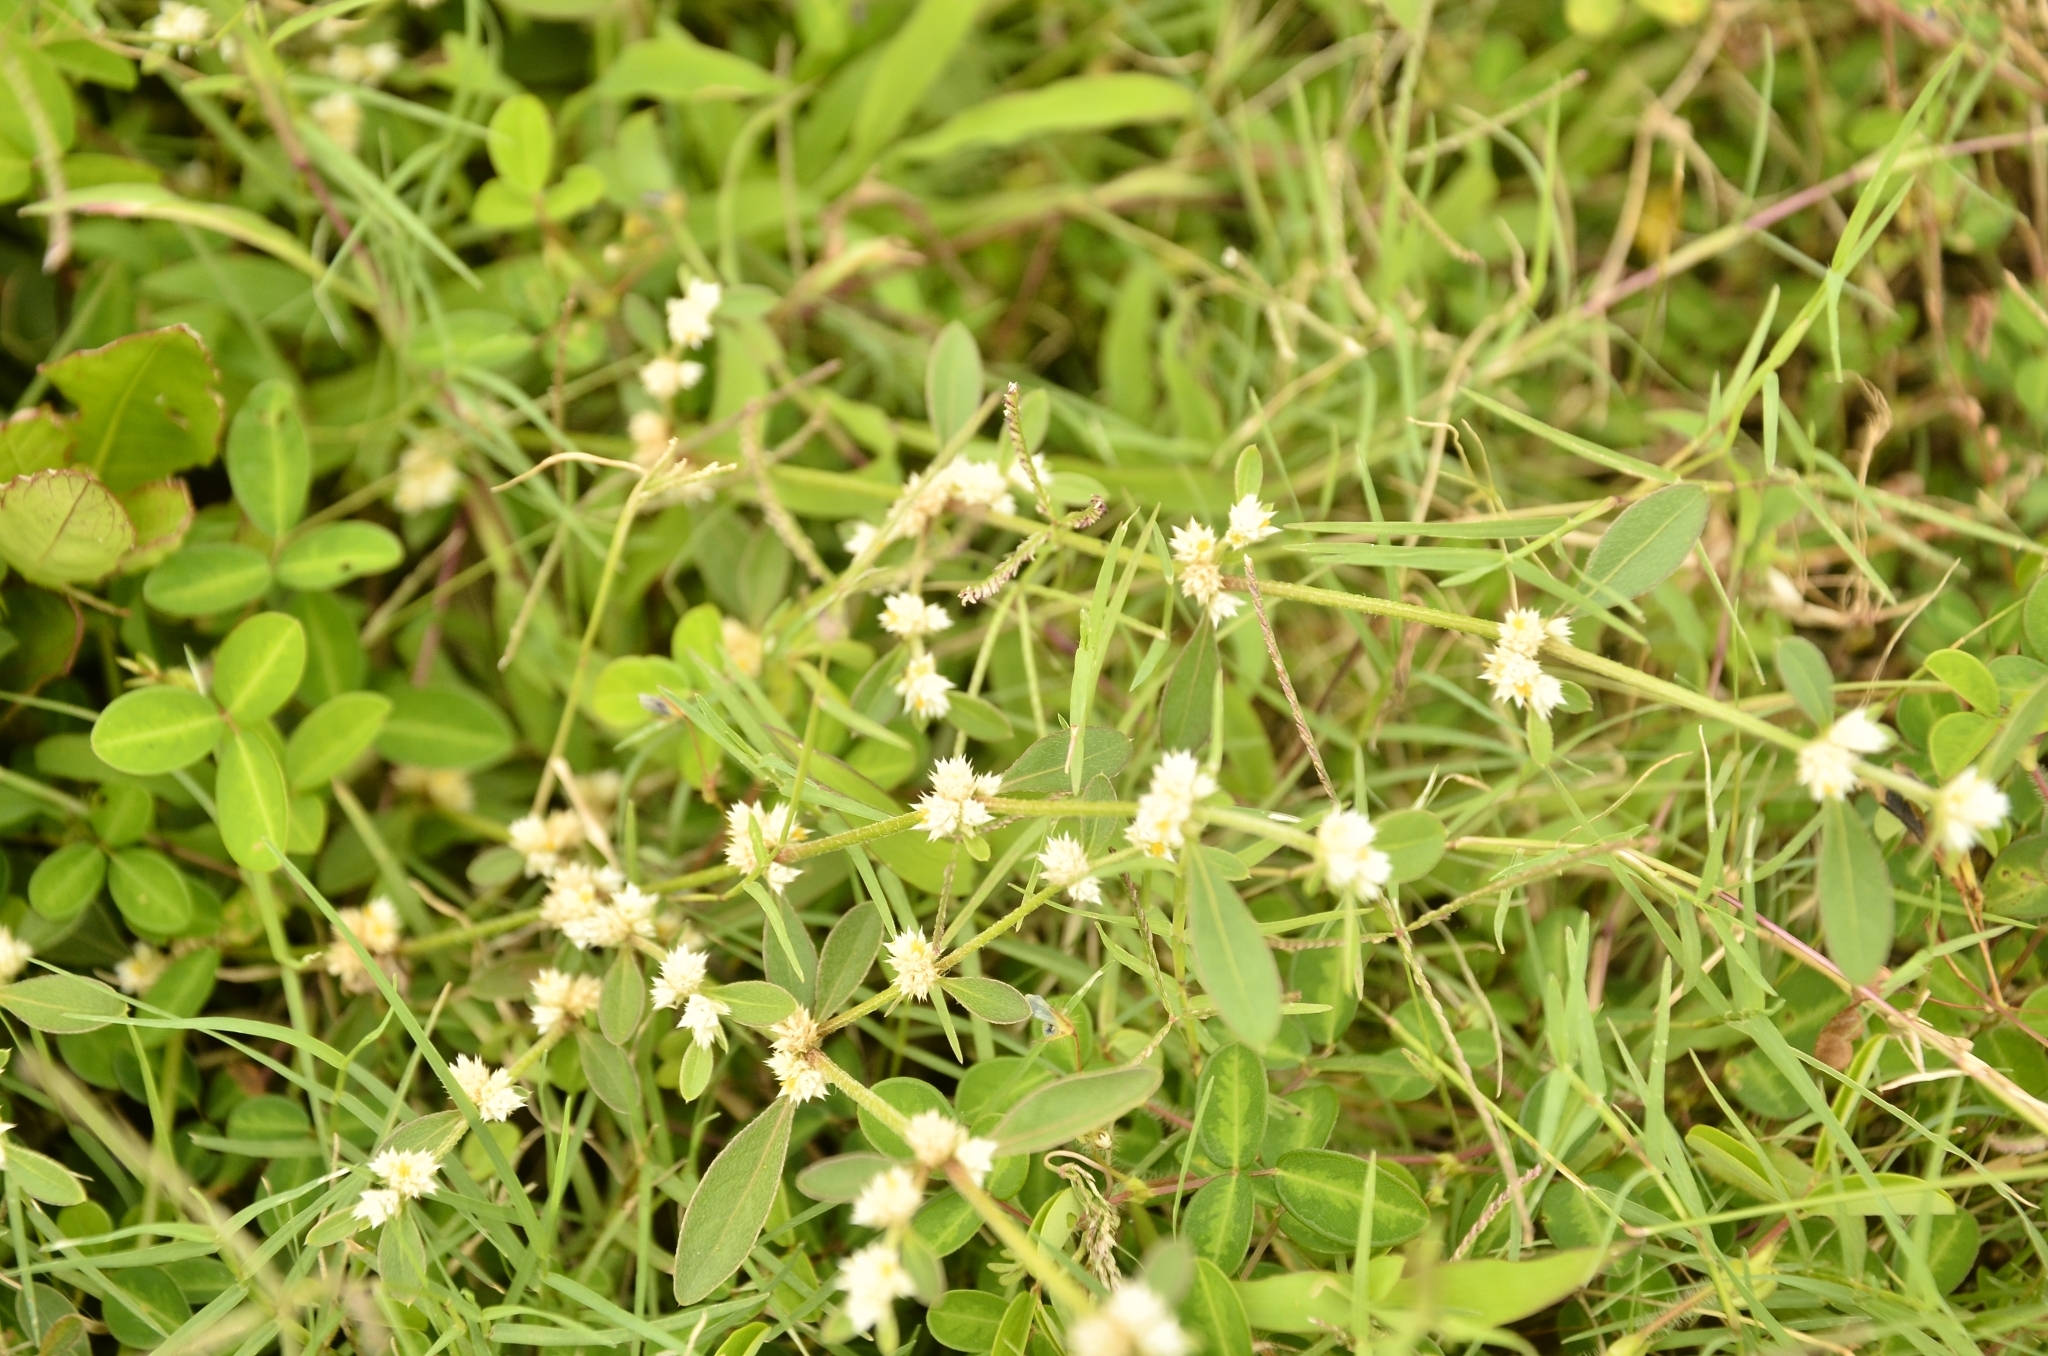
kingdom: Plantae
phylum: Tracheophyta
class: Magnoliopsida
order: Caryophyllales
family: Amaranthaceae
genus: Alternanthera
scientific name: Alternanthera bettzickiana
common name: Calico-plant
